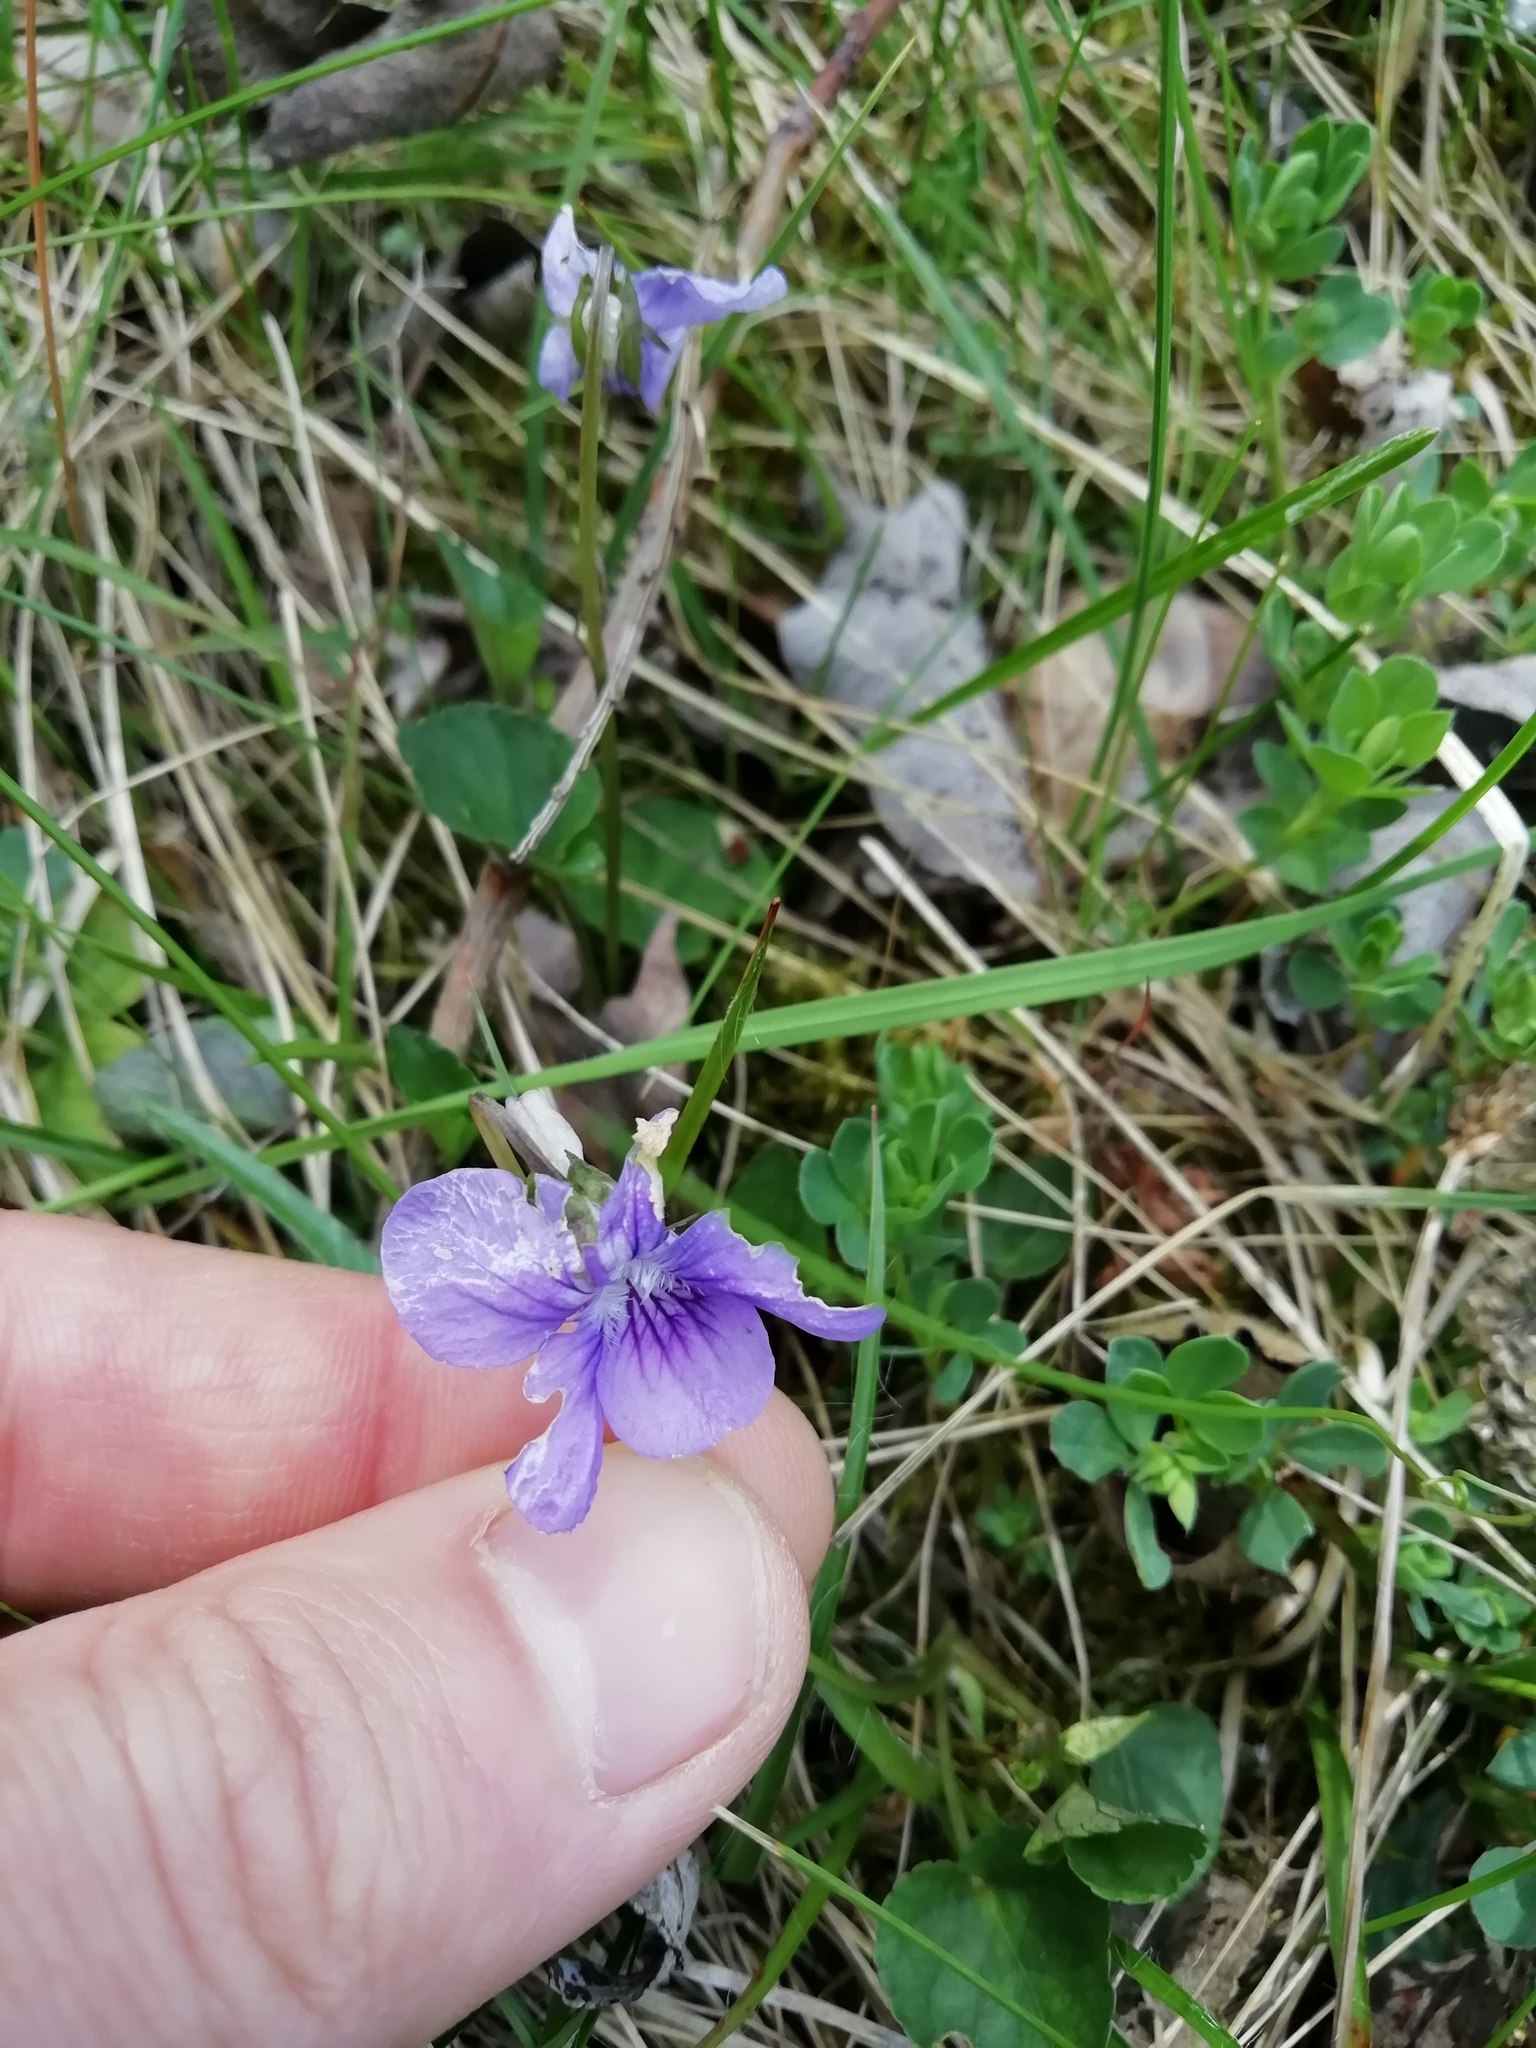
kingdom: Plantae
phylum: Tracheophyta
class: Magnoliopsida
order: Malpighiales
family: Violaceae
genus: Viola
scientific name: Viola riviniana
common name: Common dog-violet
